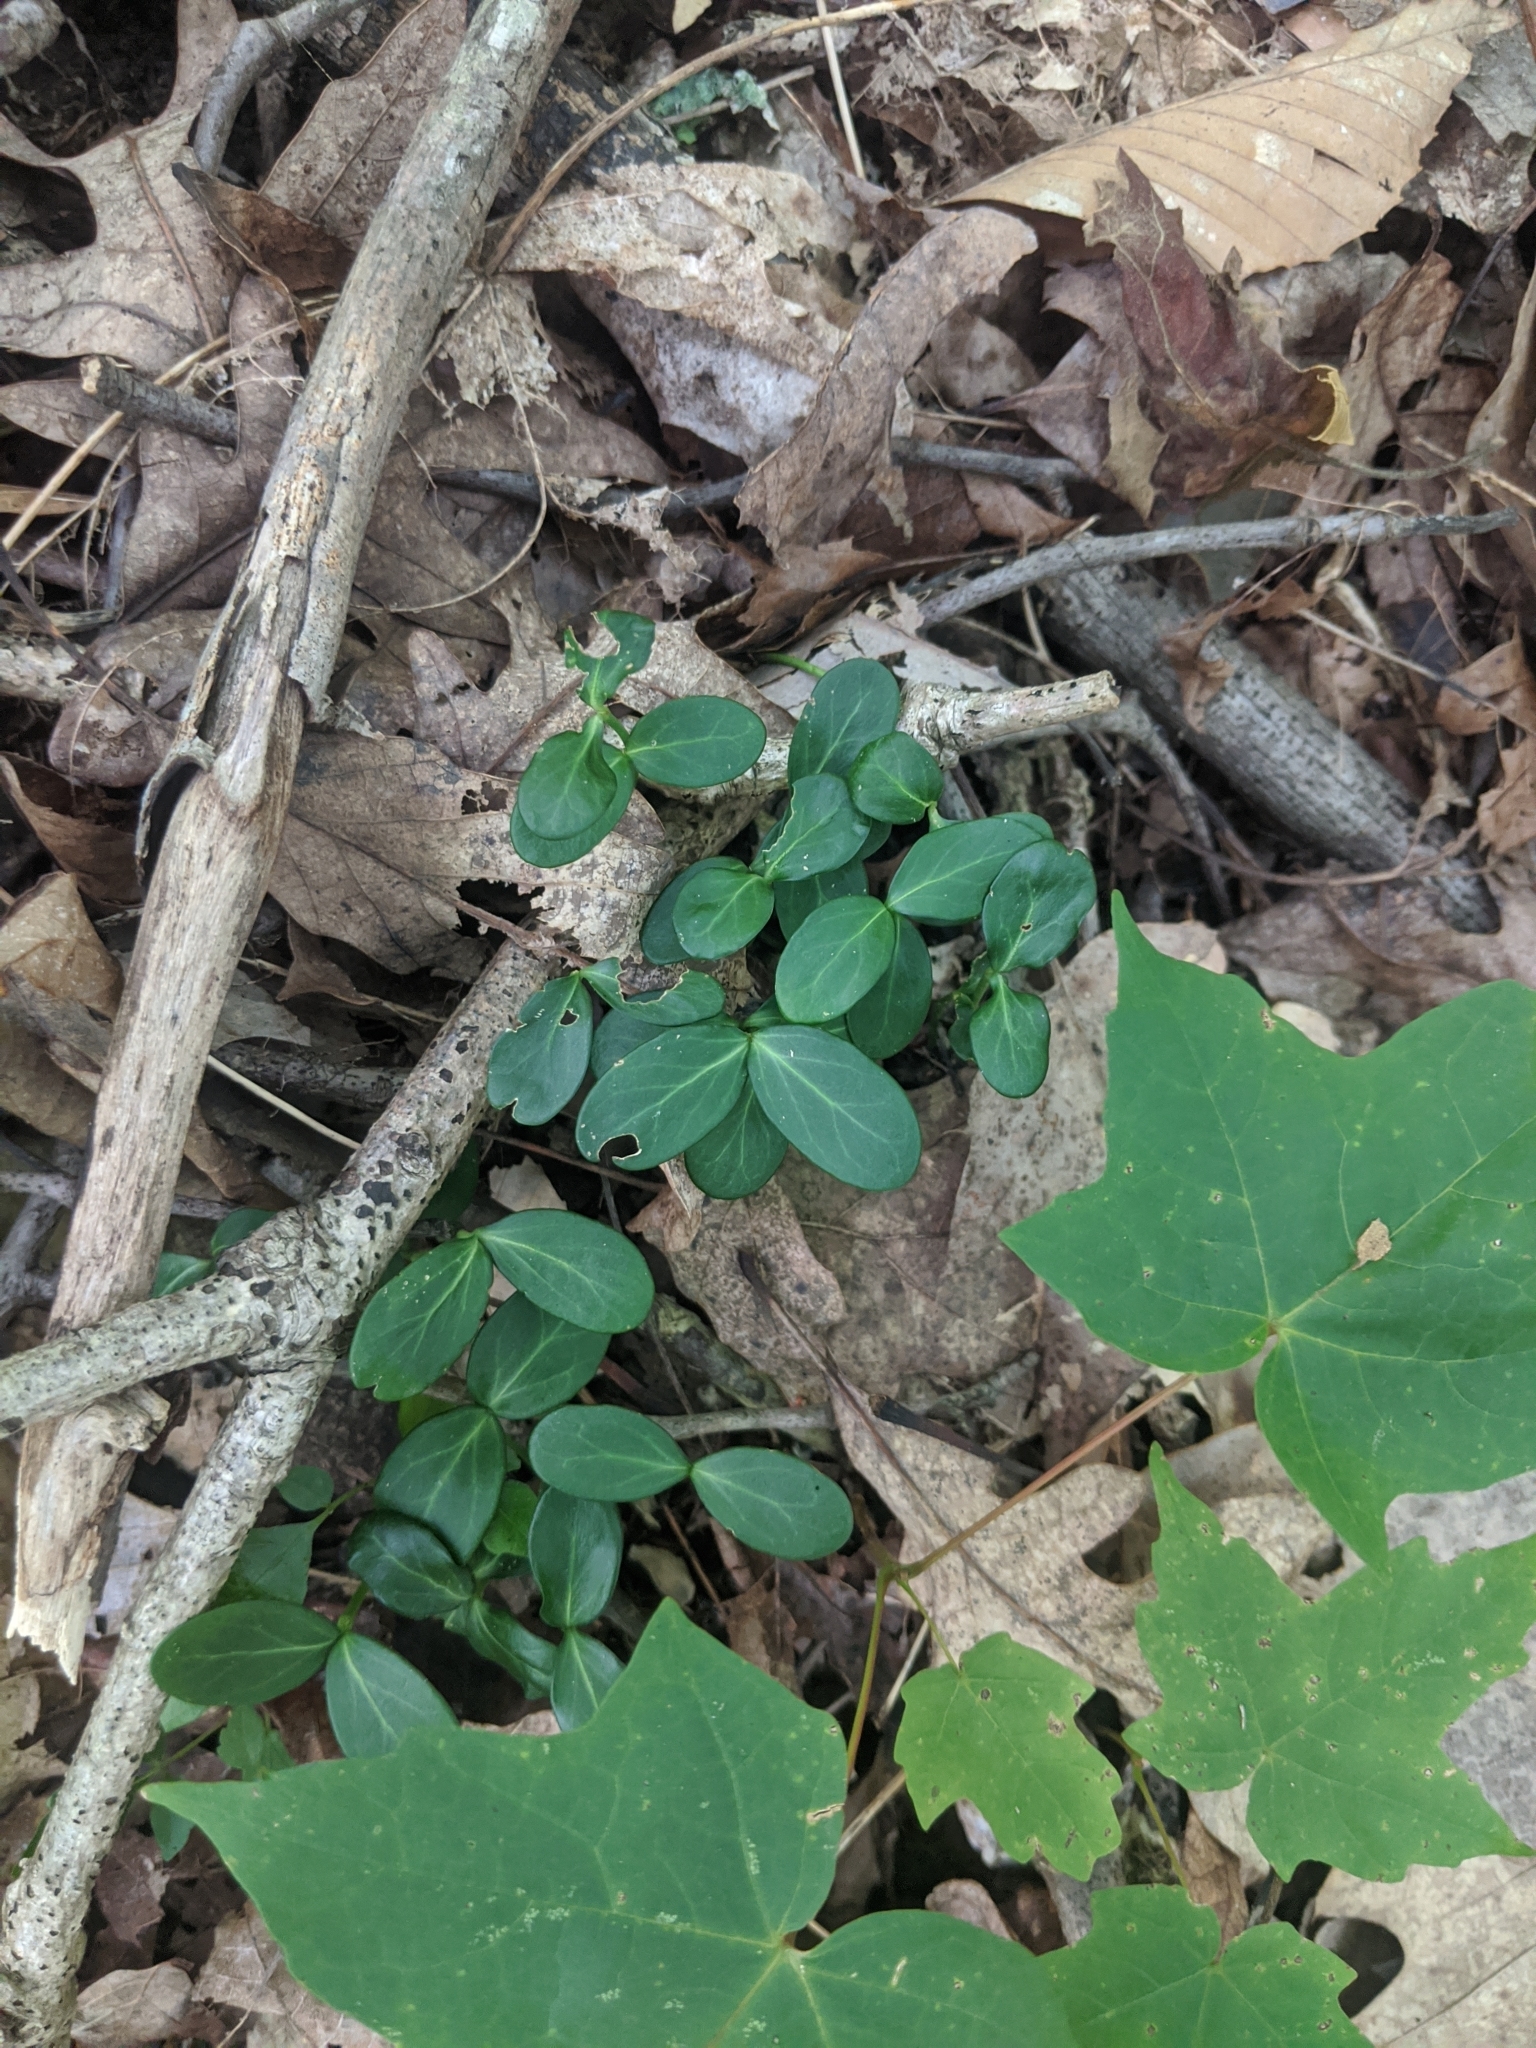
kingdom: Plantae
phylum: Tracheophyta
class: Magnoliopsida
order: Celastrales
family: Celastraceae
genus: Euonymus
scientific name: Euonymus fortunei
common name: Climbing euonymus
